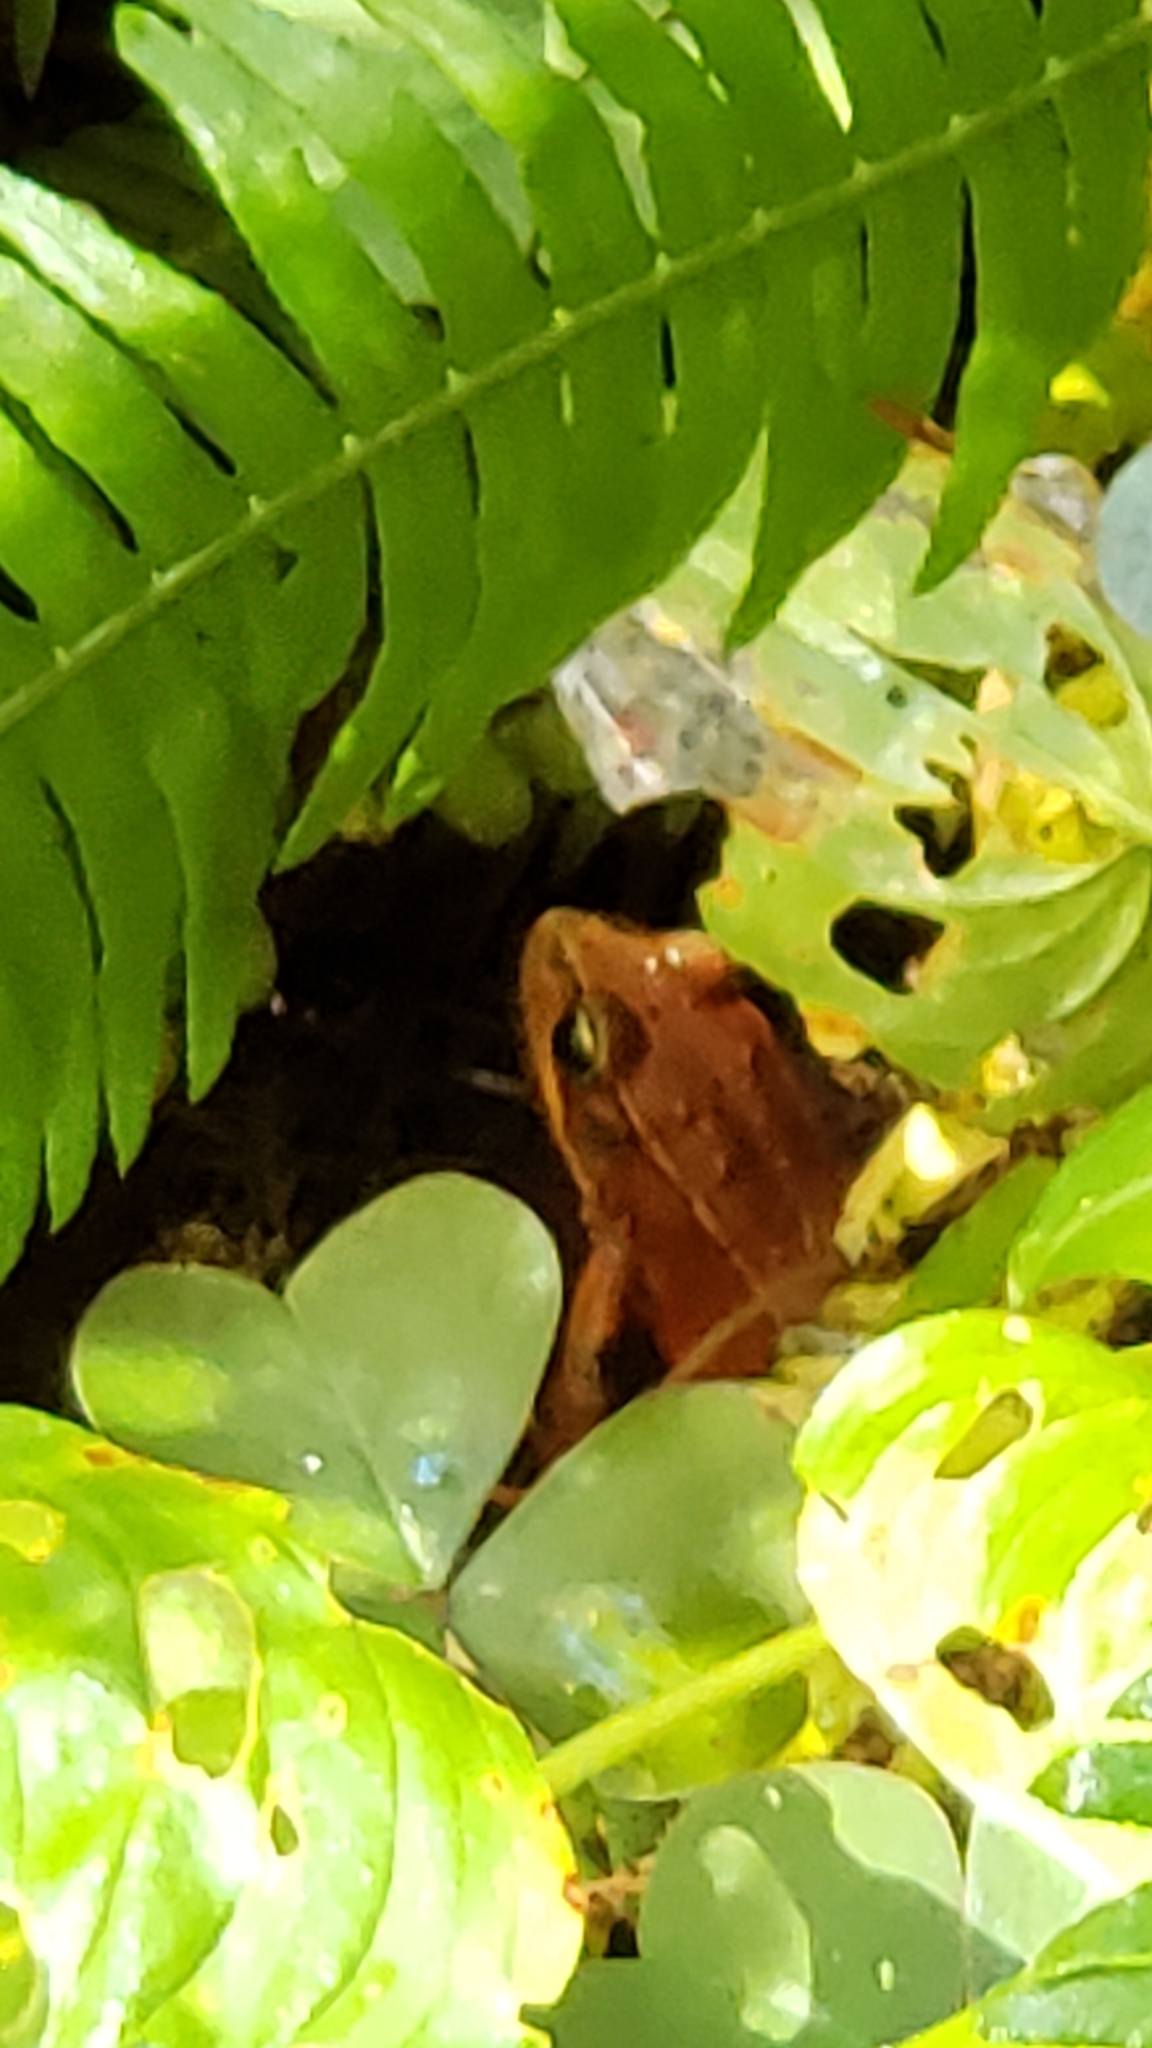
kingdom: Animalia
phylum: Chordata
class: Amphibia
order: Anura
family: Ranidae
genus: Rana
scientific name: Rana aurora
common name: Red-legged frog
